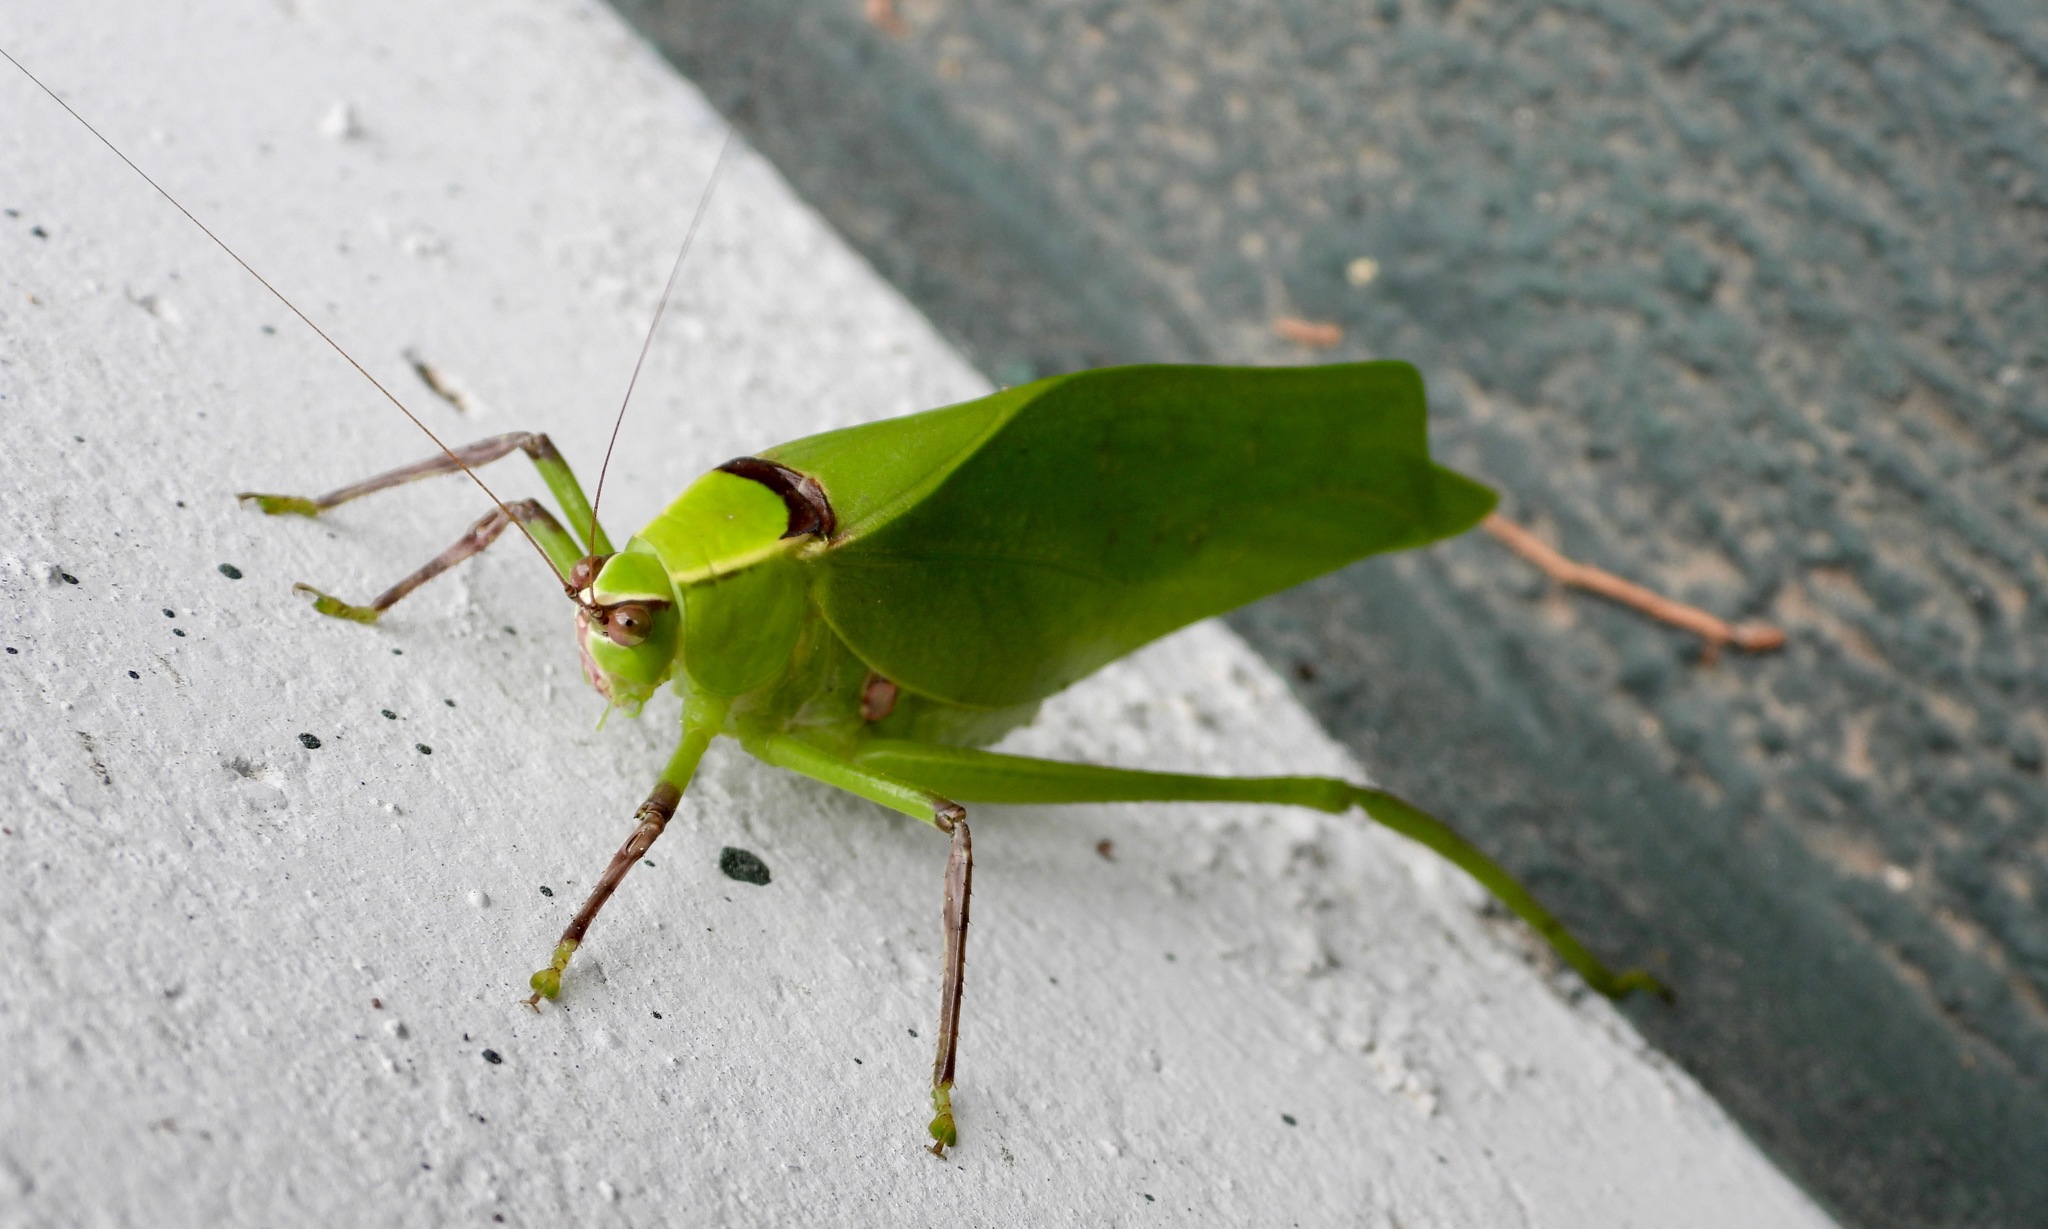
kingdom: Animalia
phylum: Arthropoda
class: Insecta
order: Orthoptera
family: Tettigoniidae
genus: Stilpnochlora
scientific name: Stilpnochlora thoracica
